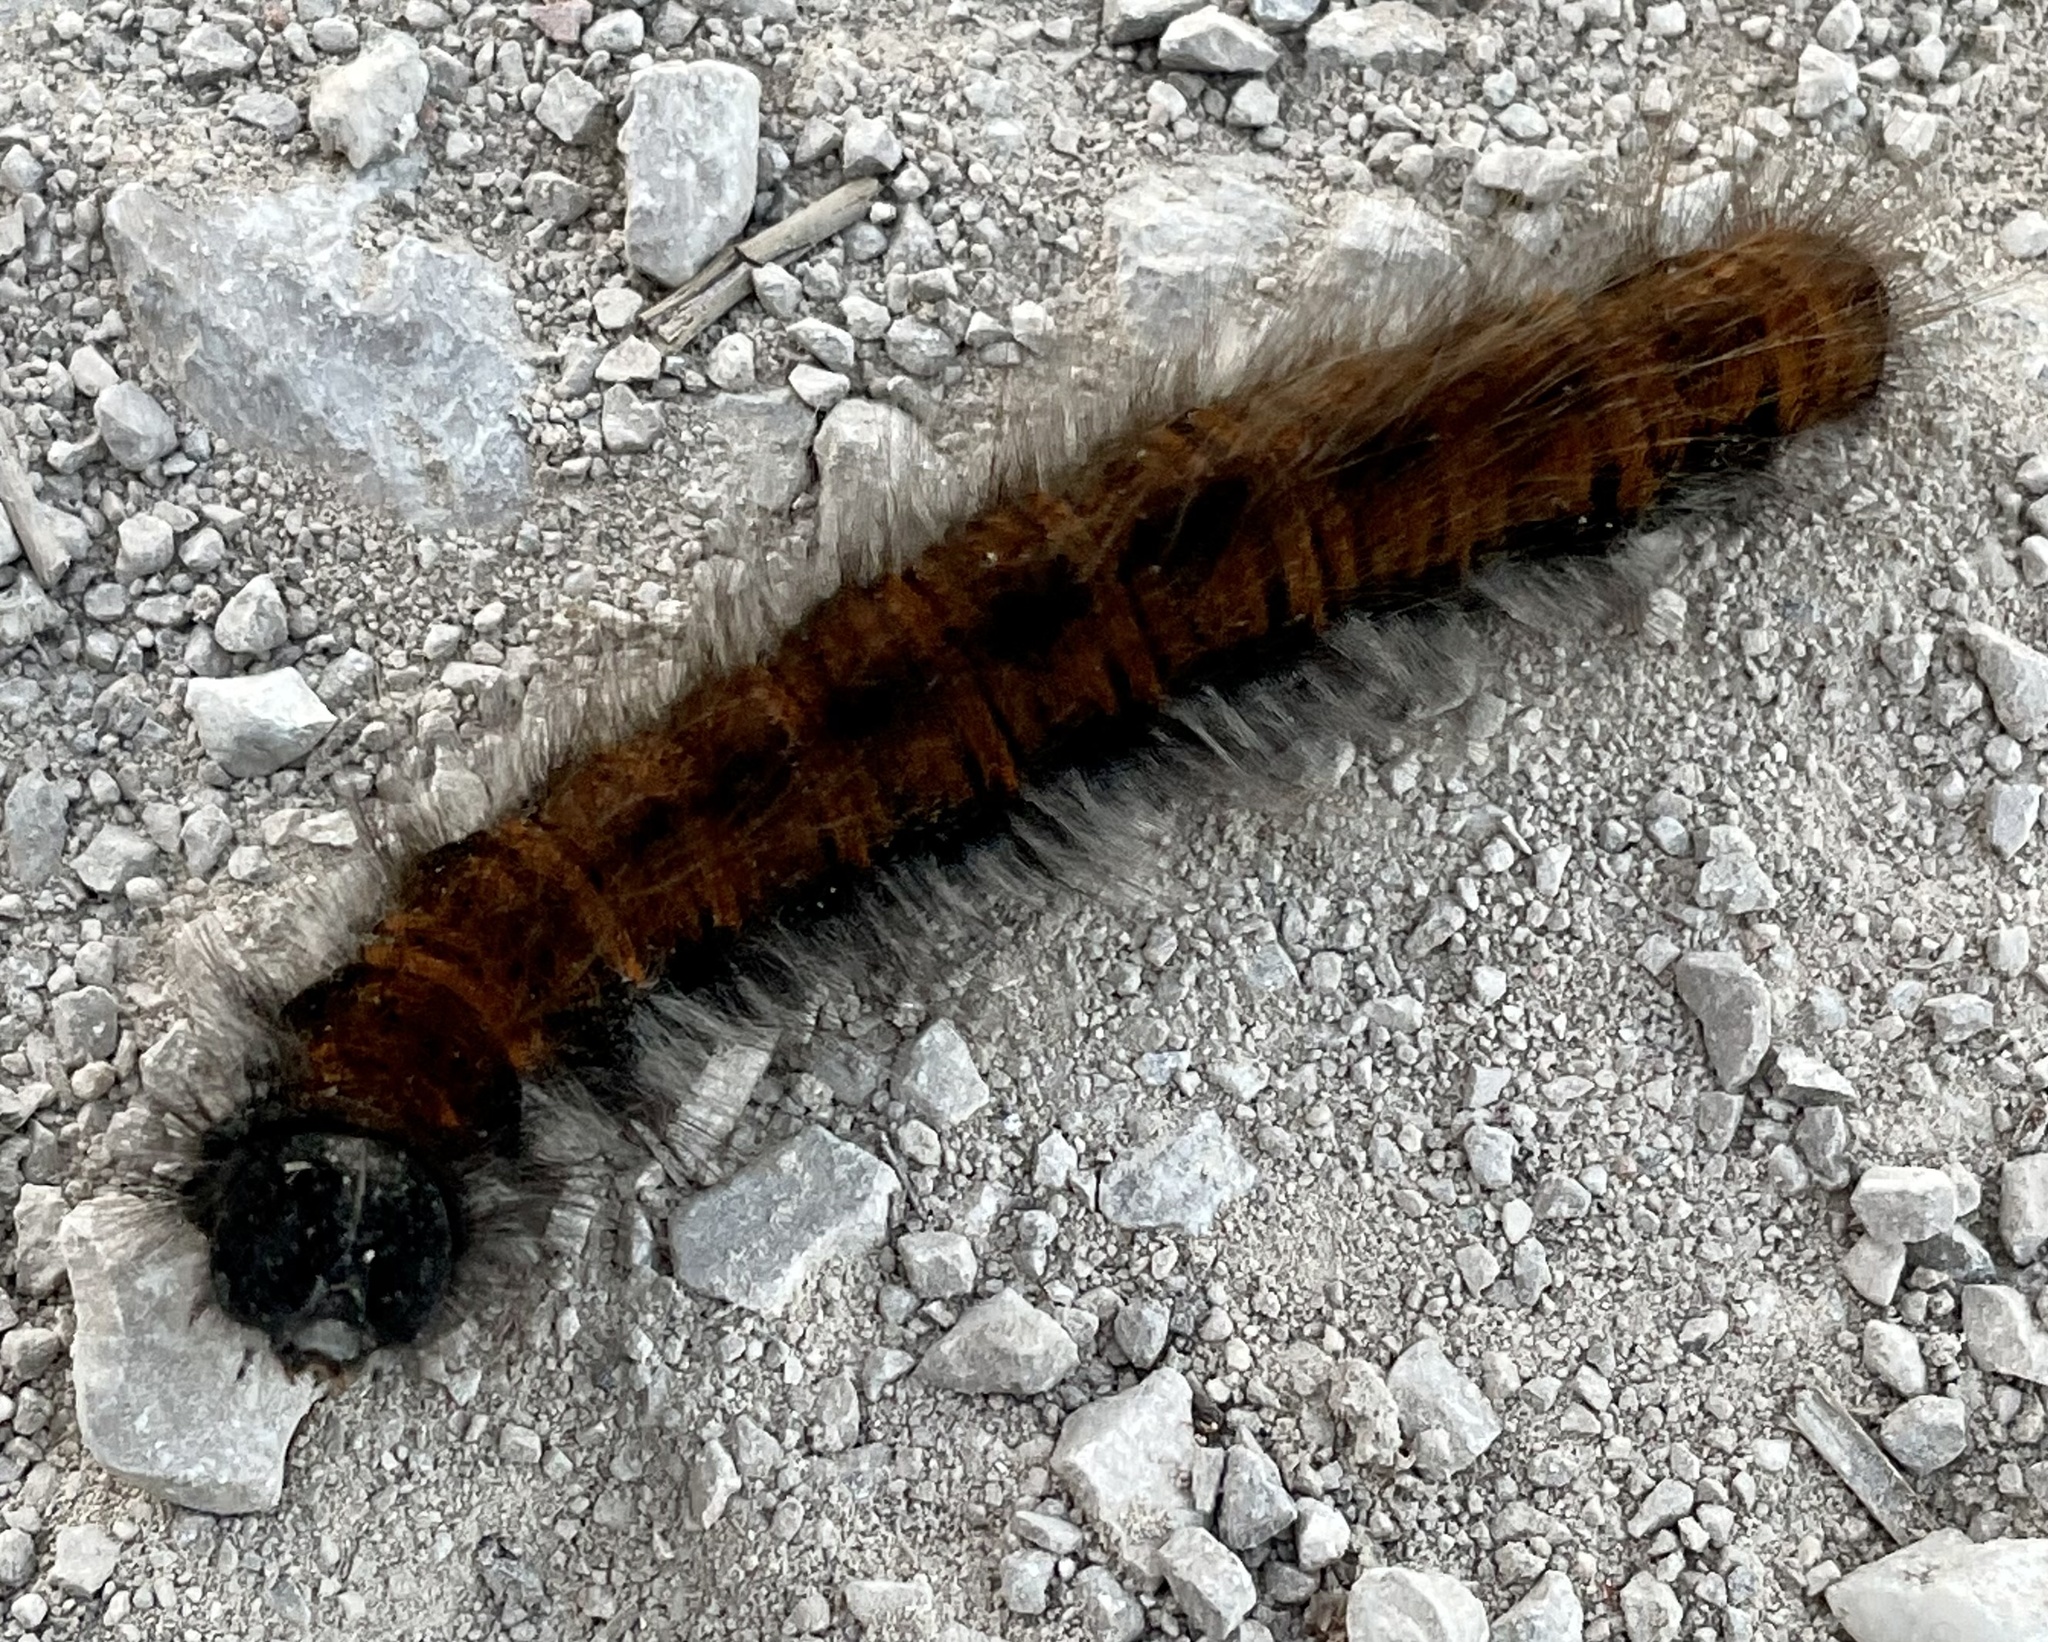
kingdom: Animalia
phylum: Arthropoda
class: Insecta
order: Lepidoptera
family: Lasiocampidae
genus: Macrothylacia
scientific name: Macrothylacia rubi
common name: Fox moth
